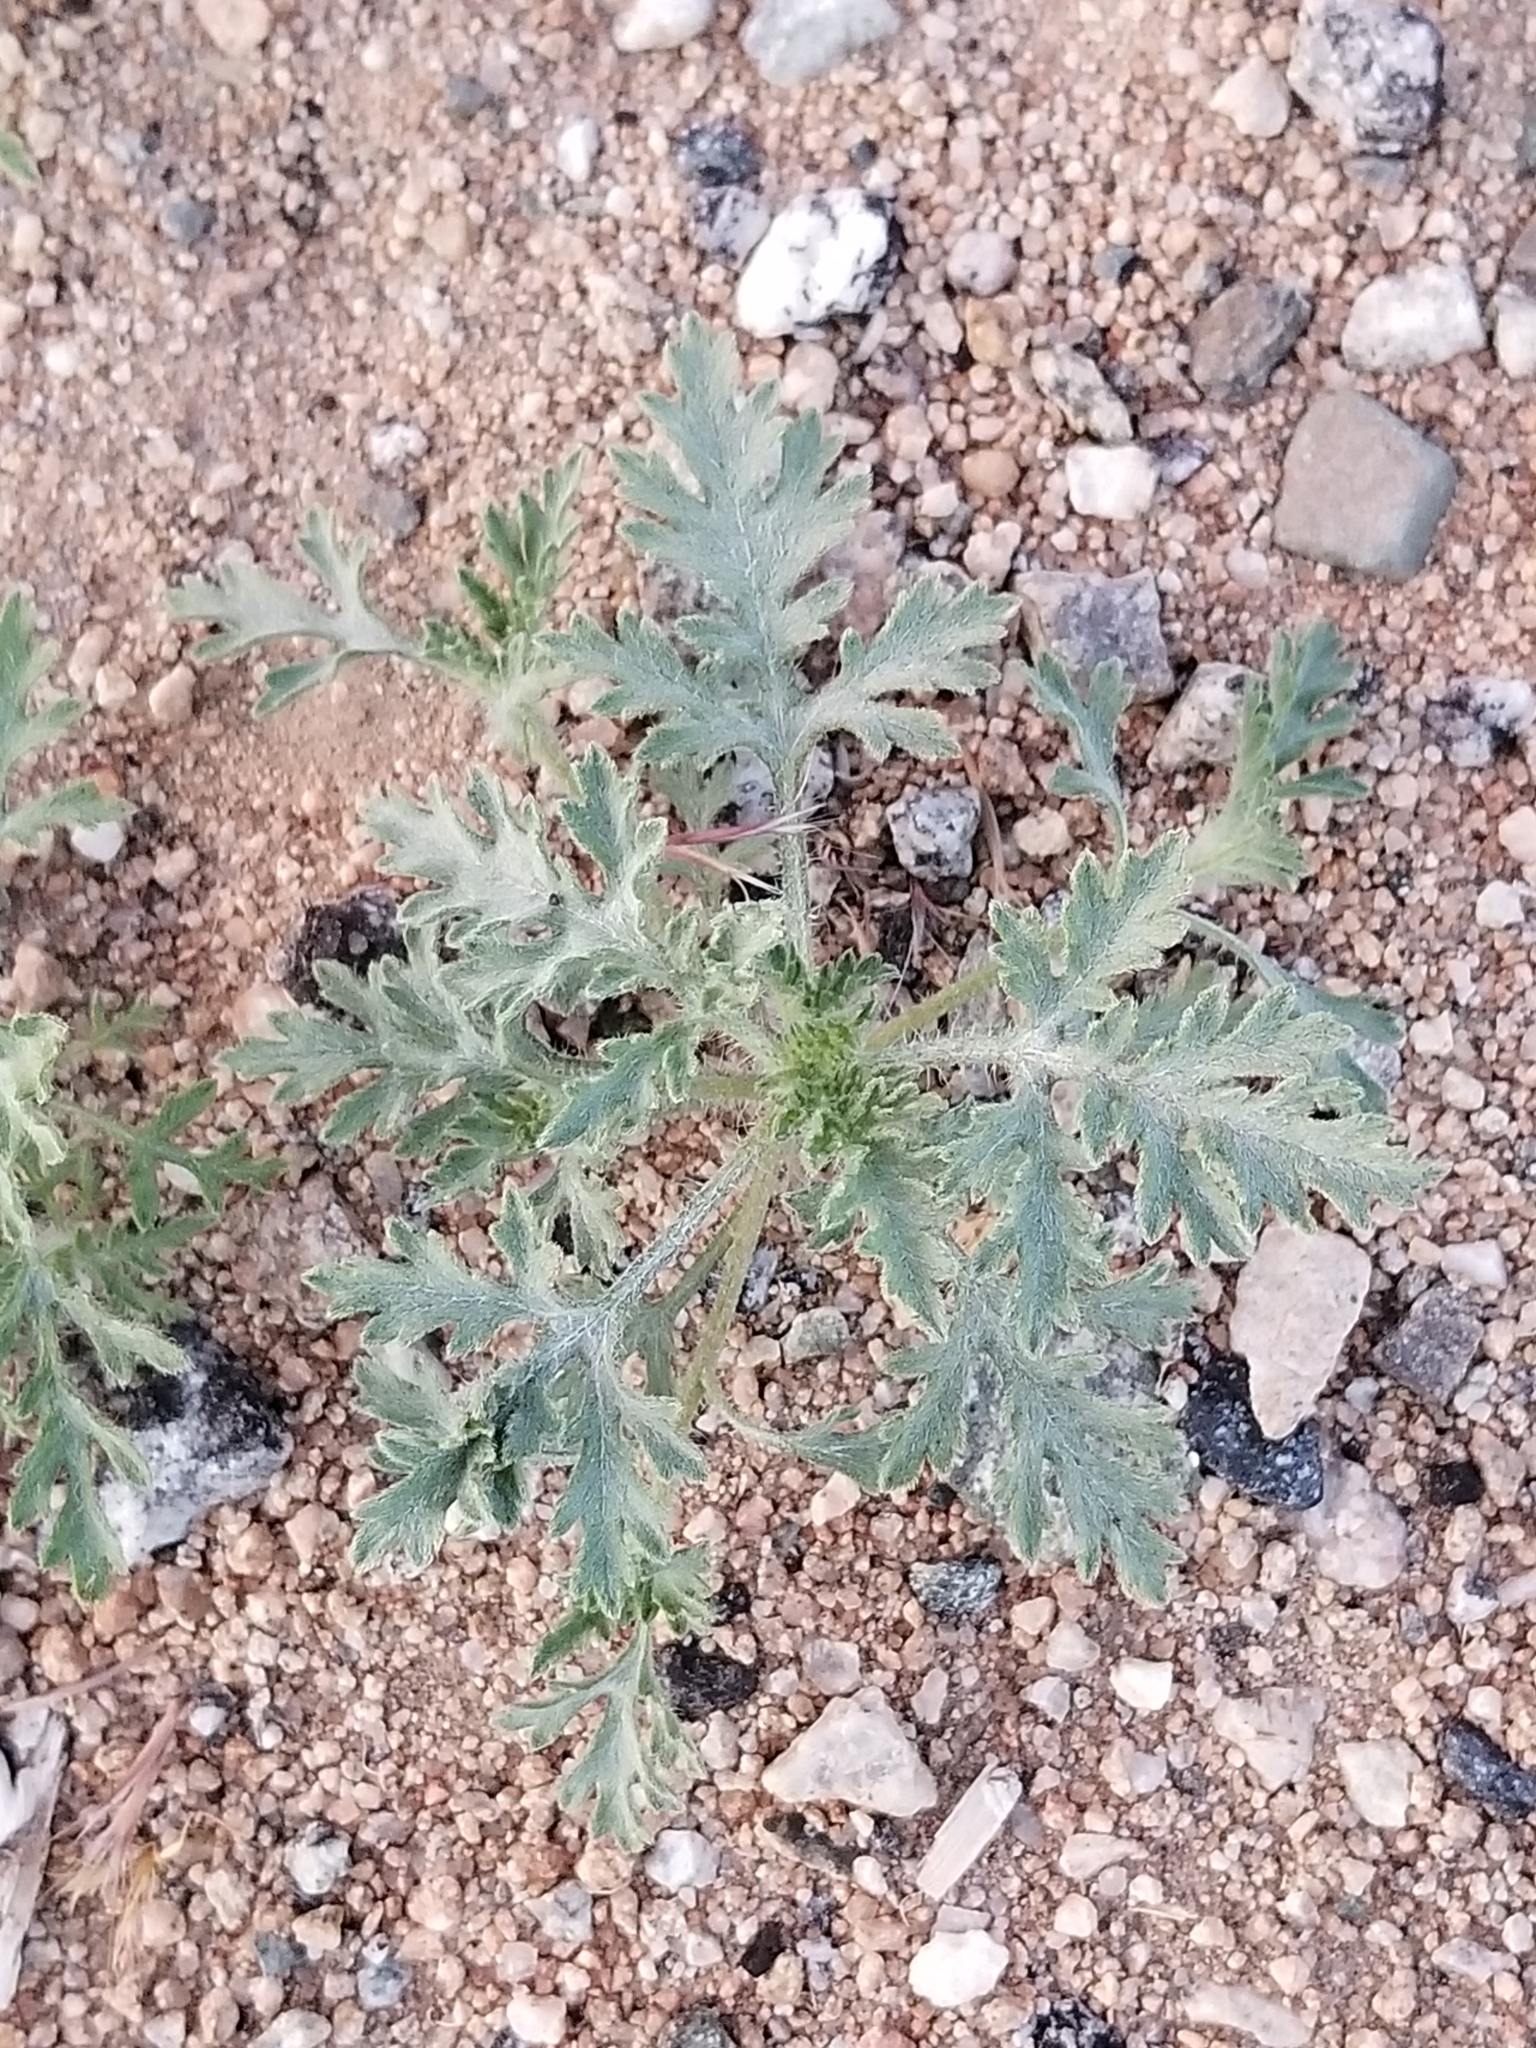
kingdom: Plantae
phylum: Tracheophyta
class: Magnoliopsida
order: Asterales
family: Asteraceae
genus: Ambrosia
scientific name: Ambrosia acanthicarpa
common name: Hooker's bur ragweed
